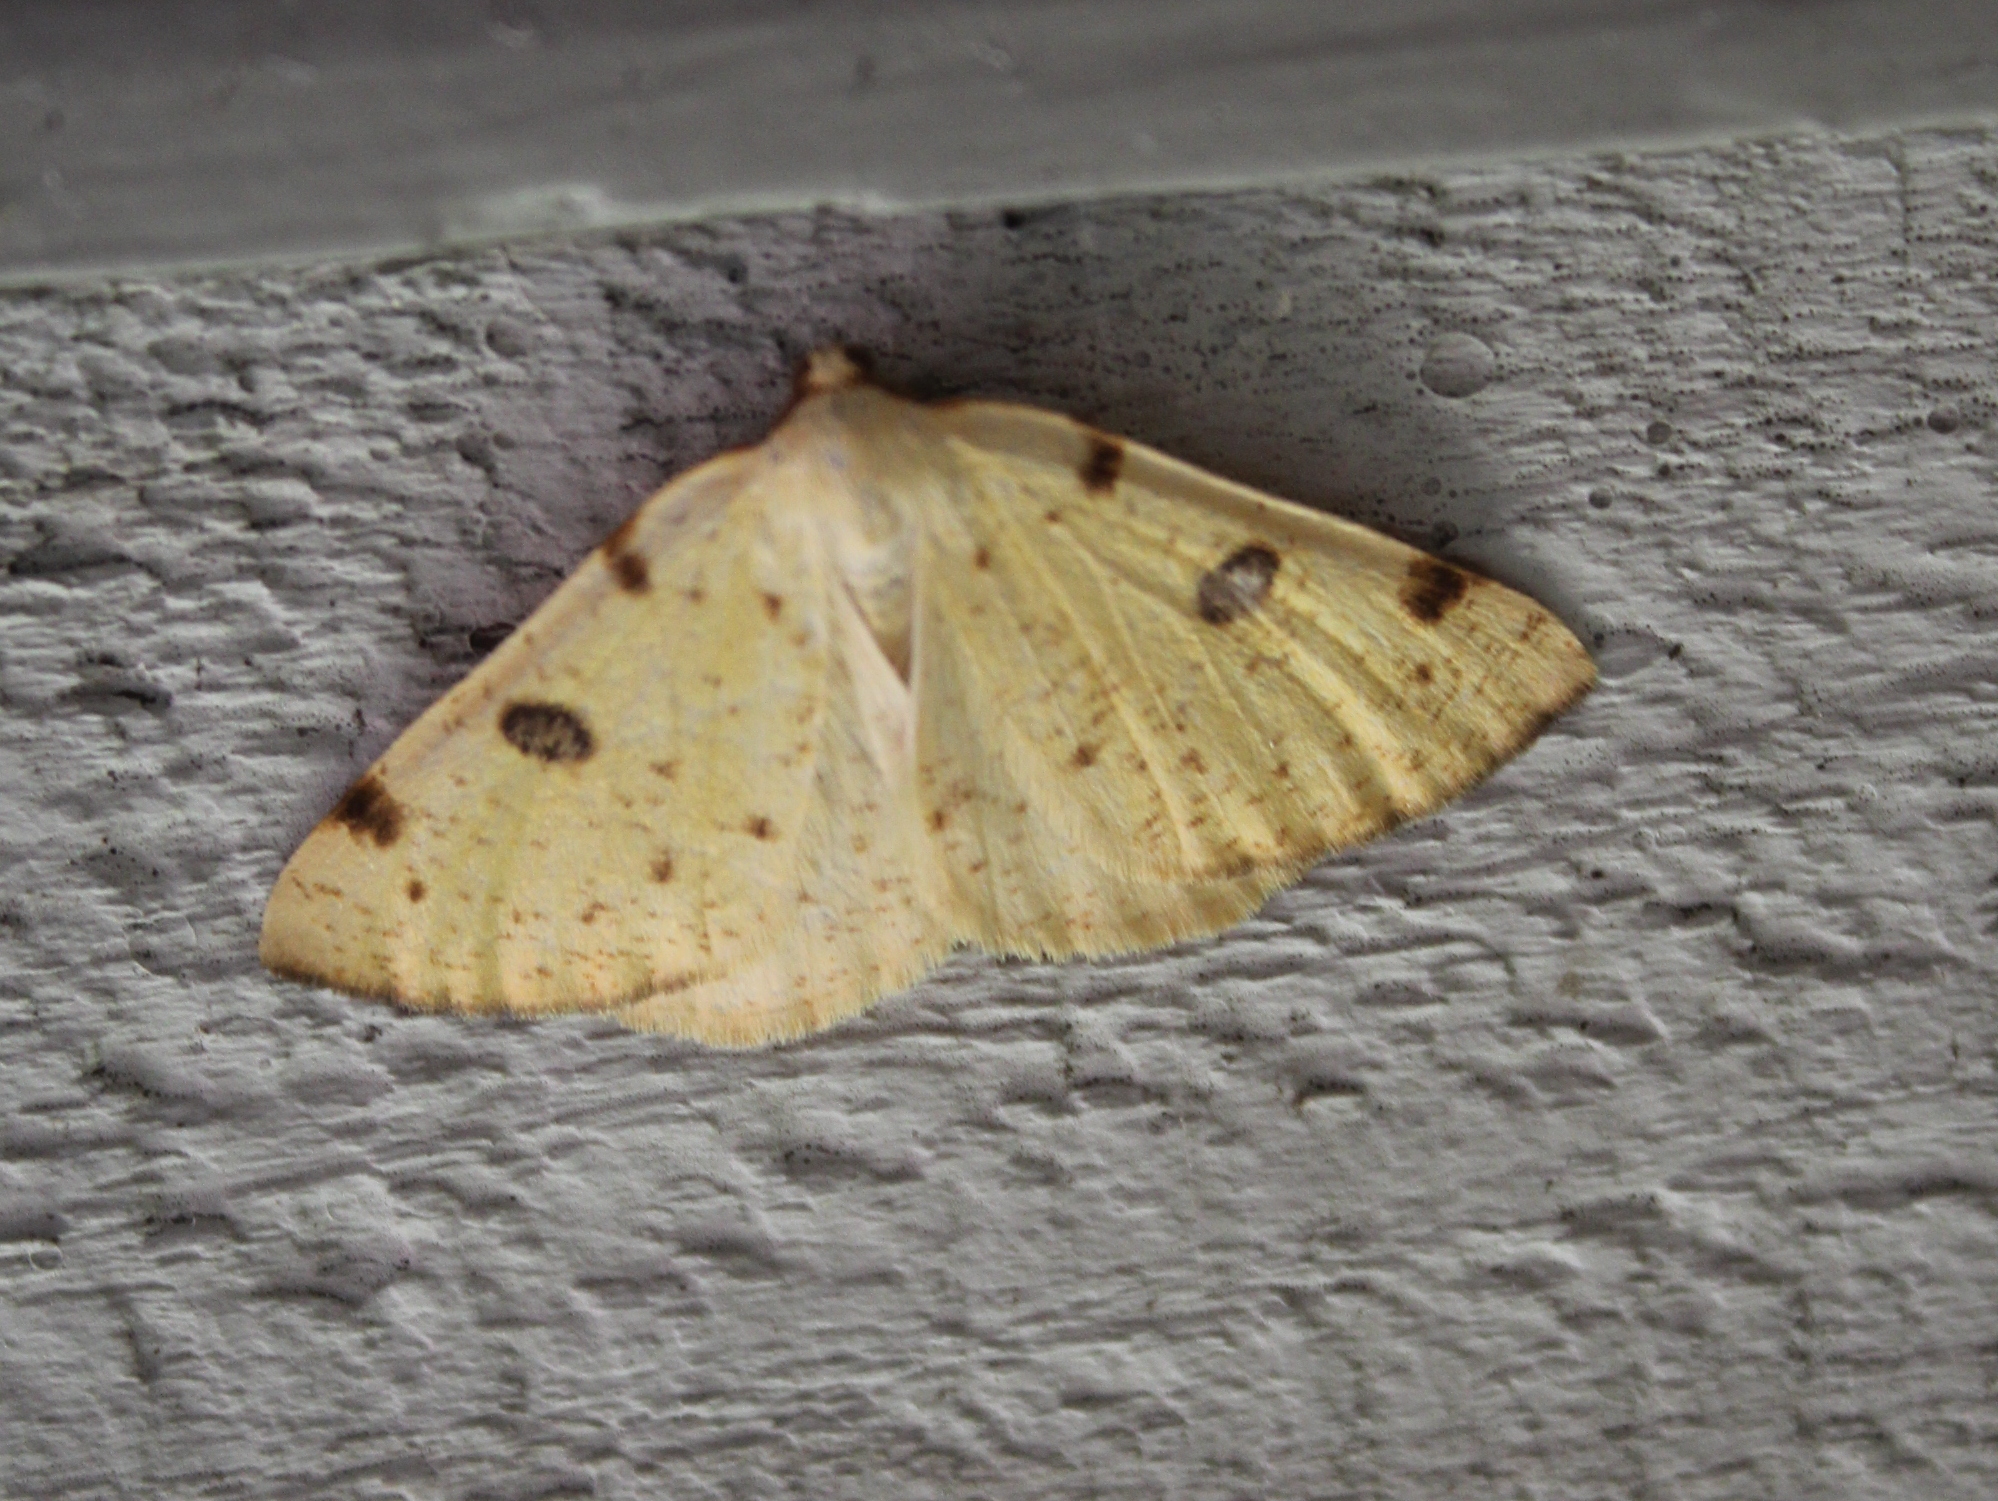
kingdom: Animalia
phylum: Arthropoda
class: Insecta
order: Lepidoptera
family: Geometridae
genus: Hesperumia
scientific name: Hesperumia sulphuraria
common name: Sulphur moth
